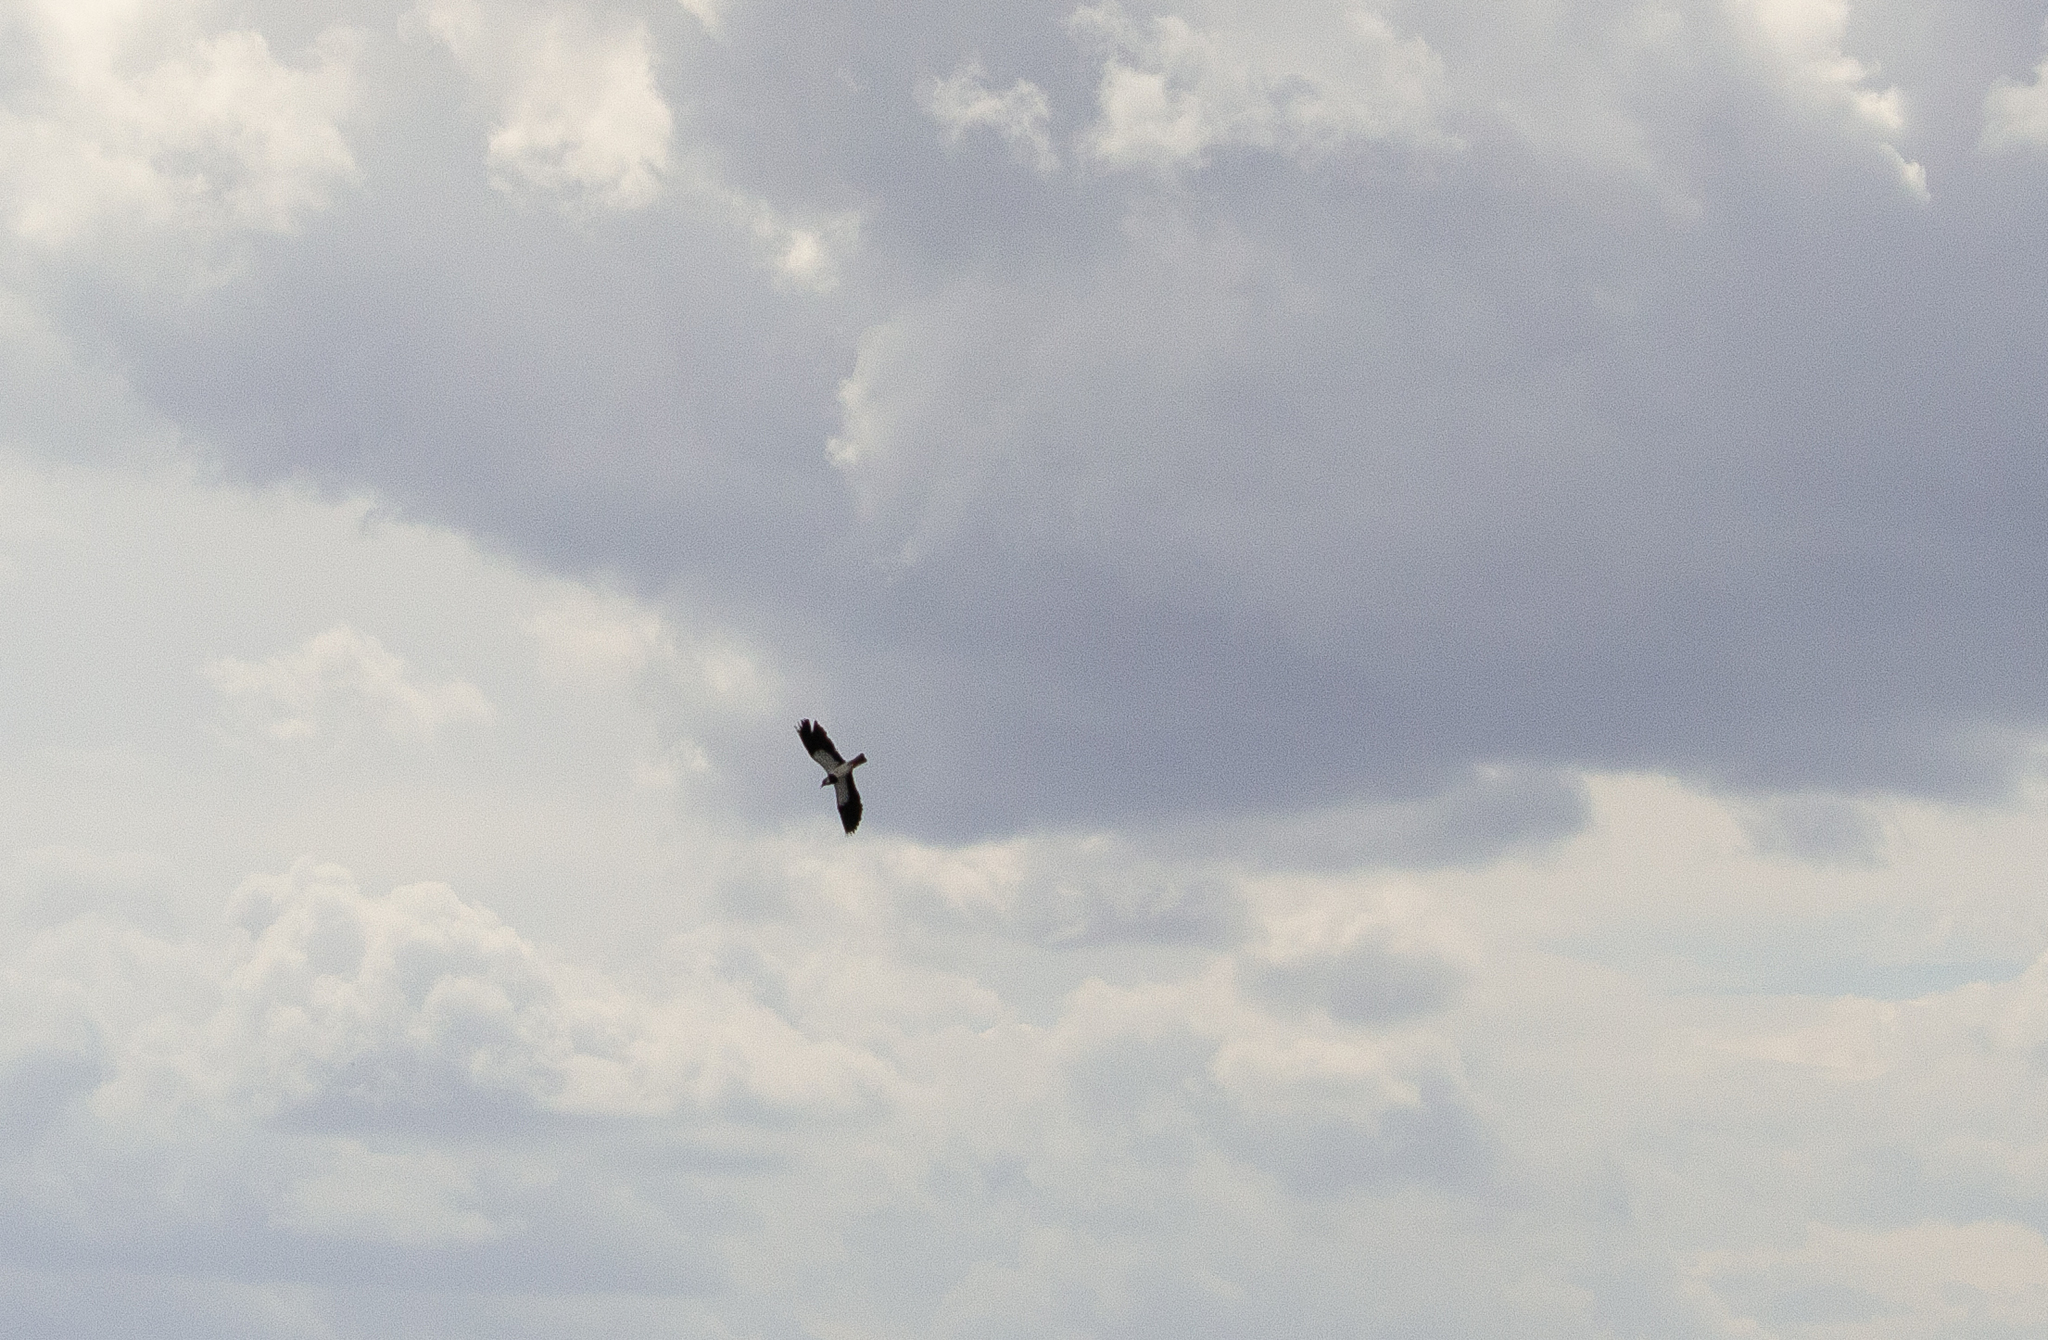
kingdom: Animalia
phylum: Chordata
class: Aves
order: Charadriiformes
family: Charadriidae
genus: Vanellus
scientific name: Vanellus vanellus
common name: Northern lapwing
